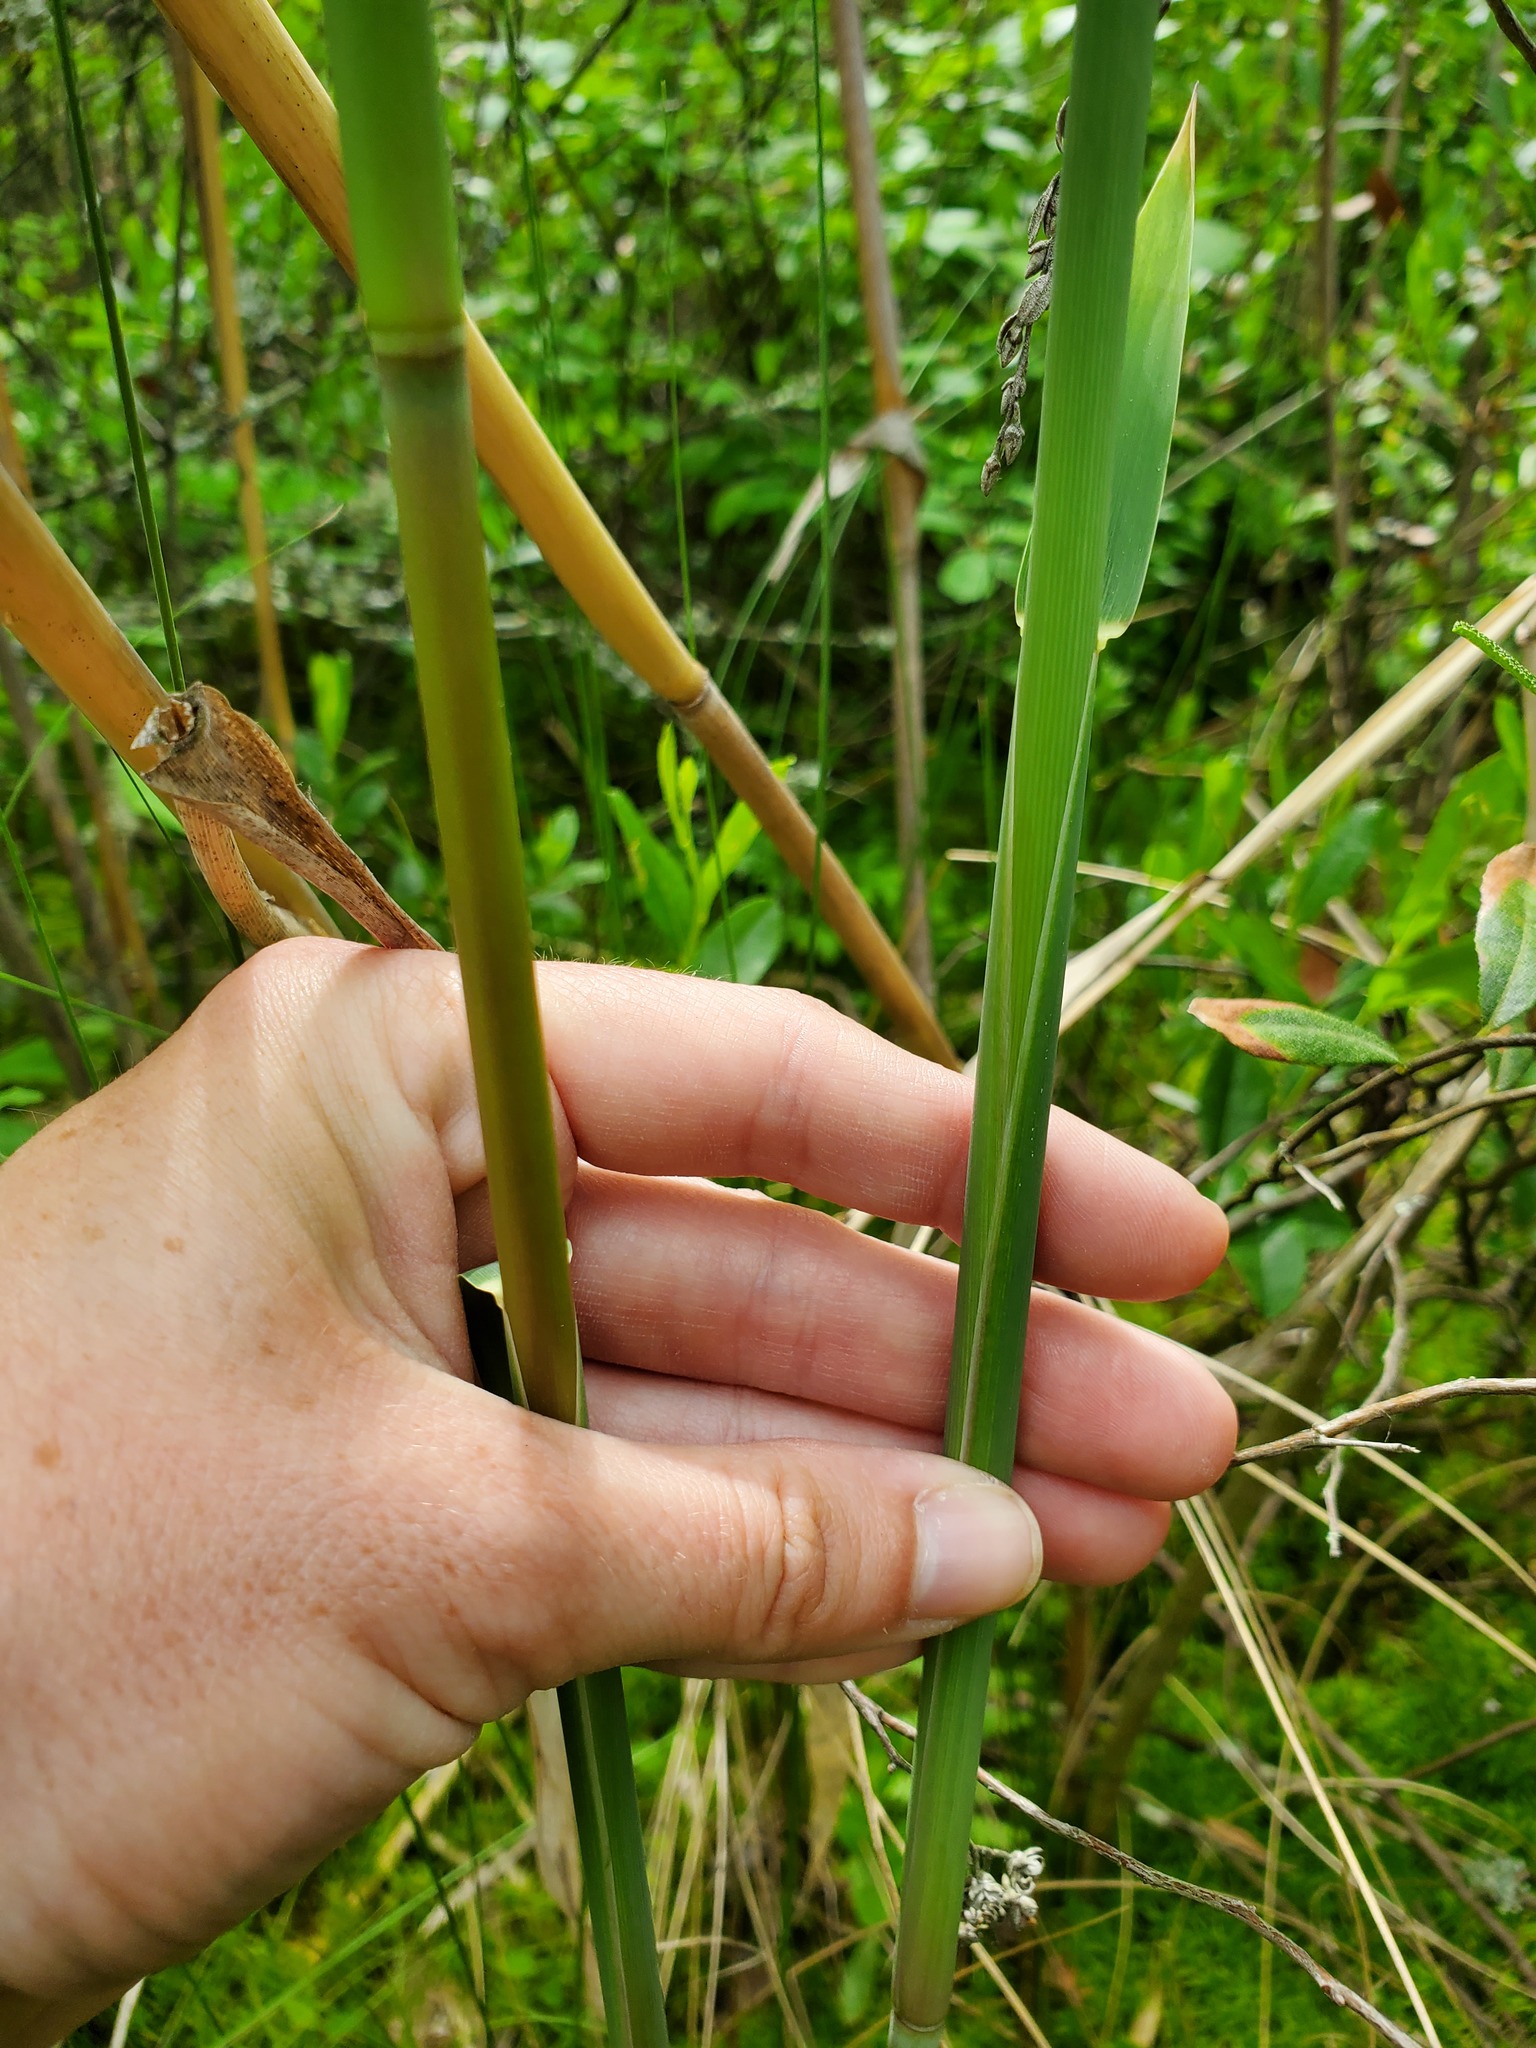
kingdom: Plantae
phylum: Tracheophyta
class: Liliopsida
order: Poales
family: Poaceae
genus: Phragmites
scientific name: Phragmites australis
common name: Common reed
